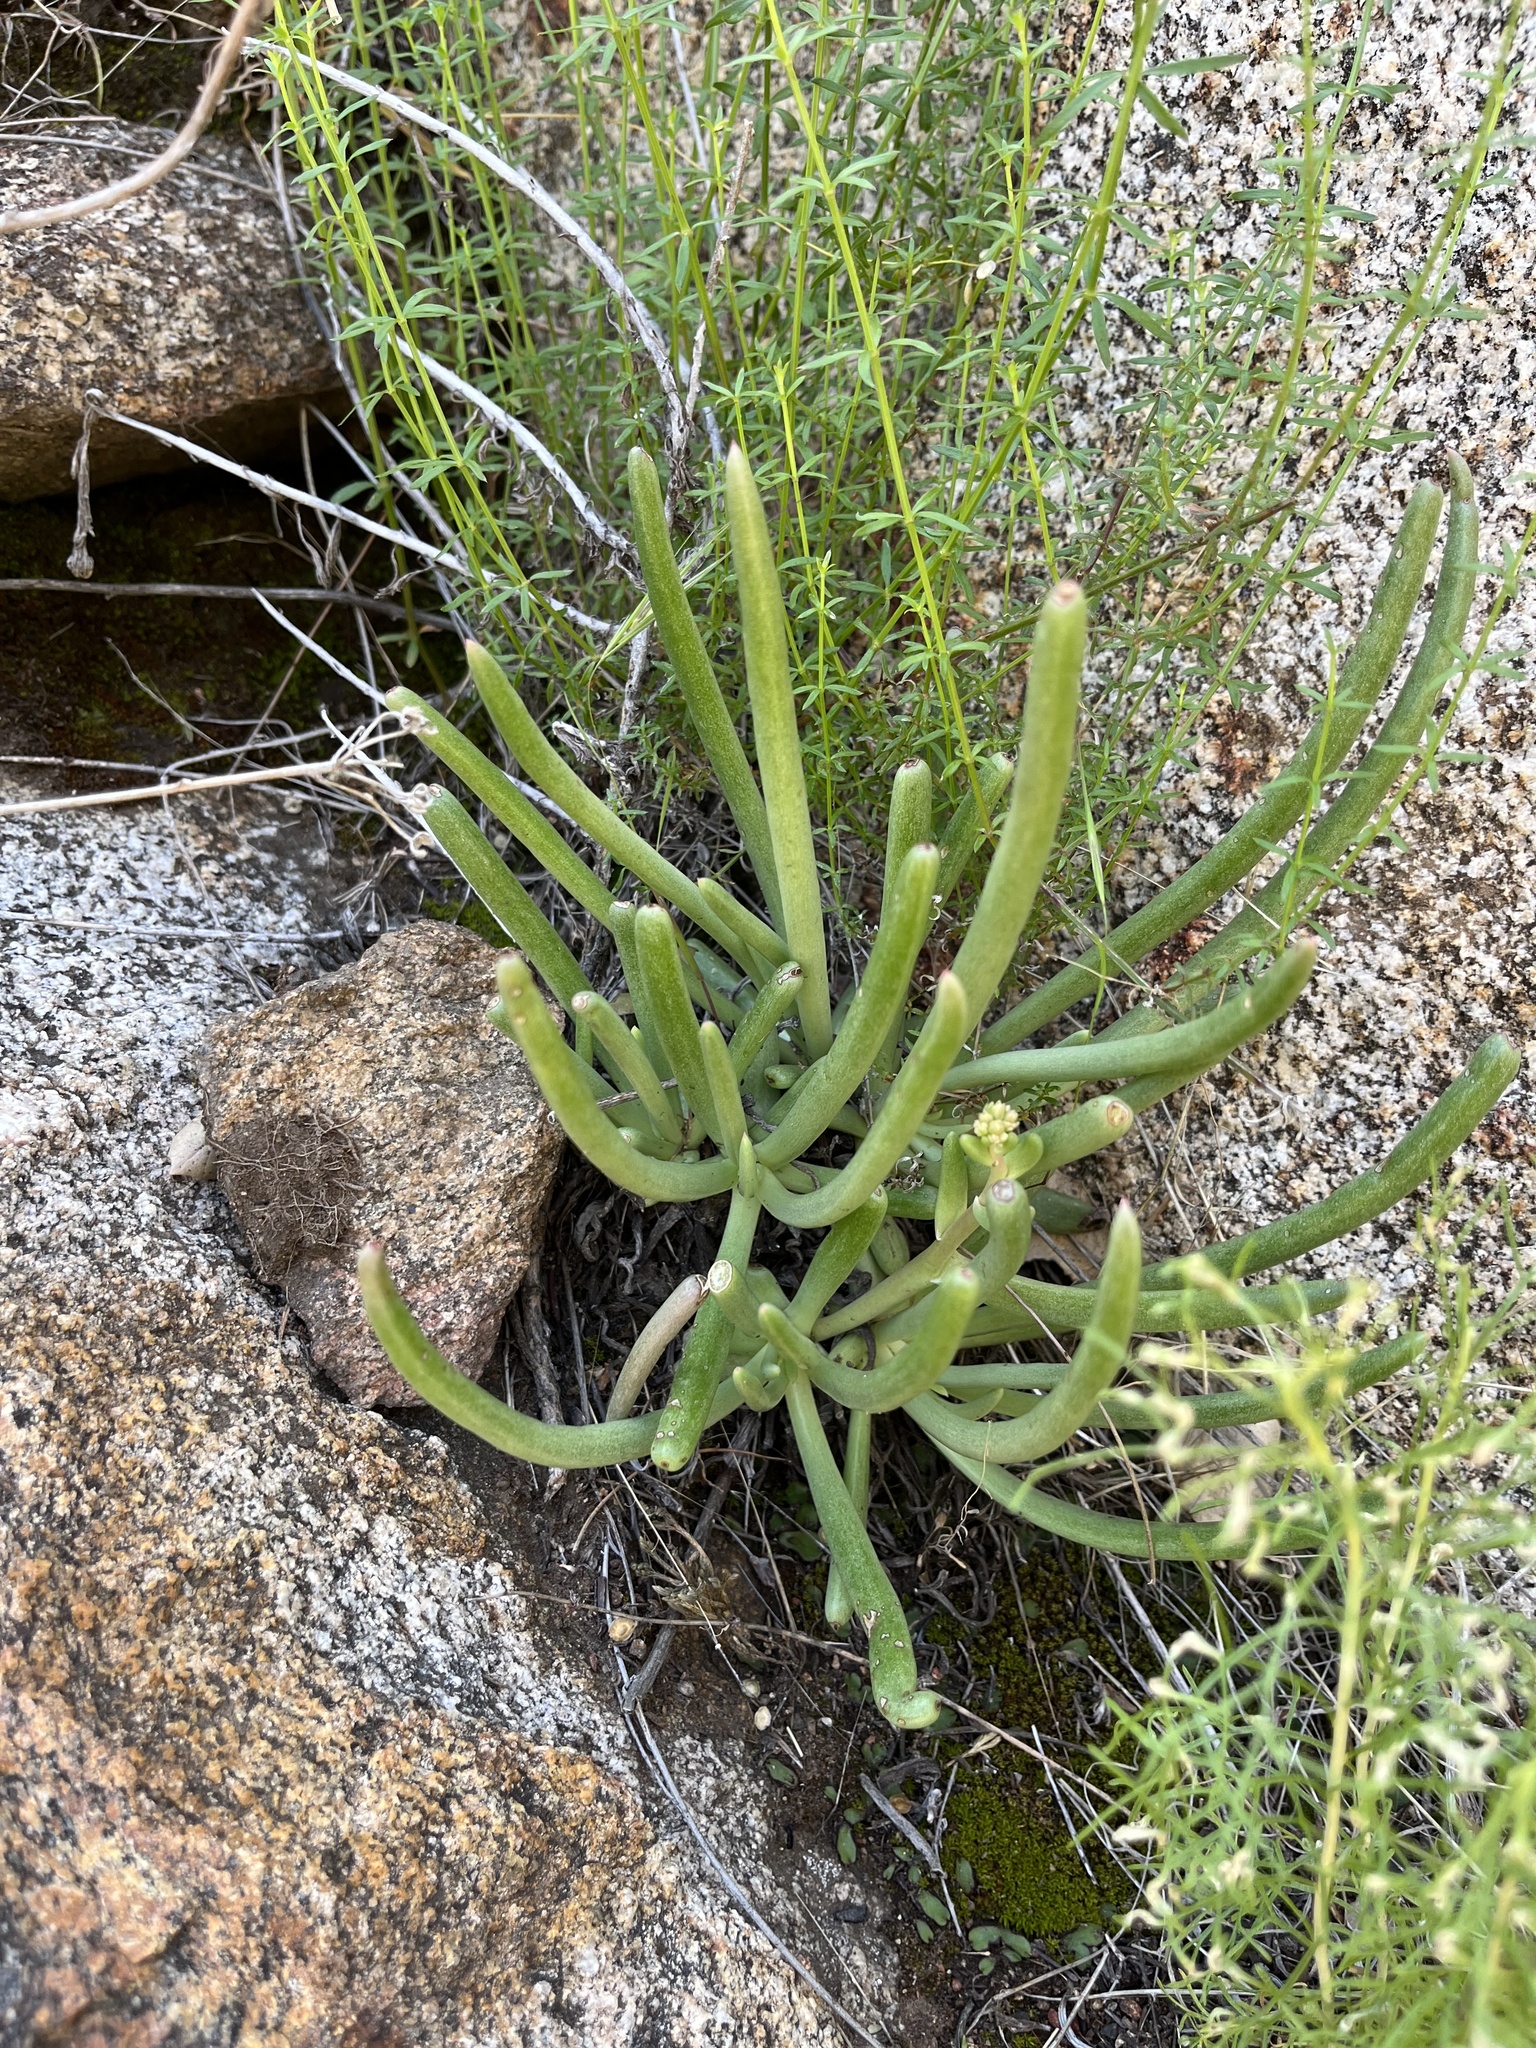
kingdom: Plantae
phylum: Tracheophyta
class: Magnoliopsida
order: Saxifragales
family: Crassulaceae
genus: Dudleya
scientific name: Dudleya edulis
